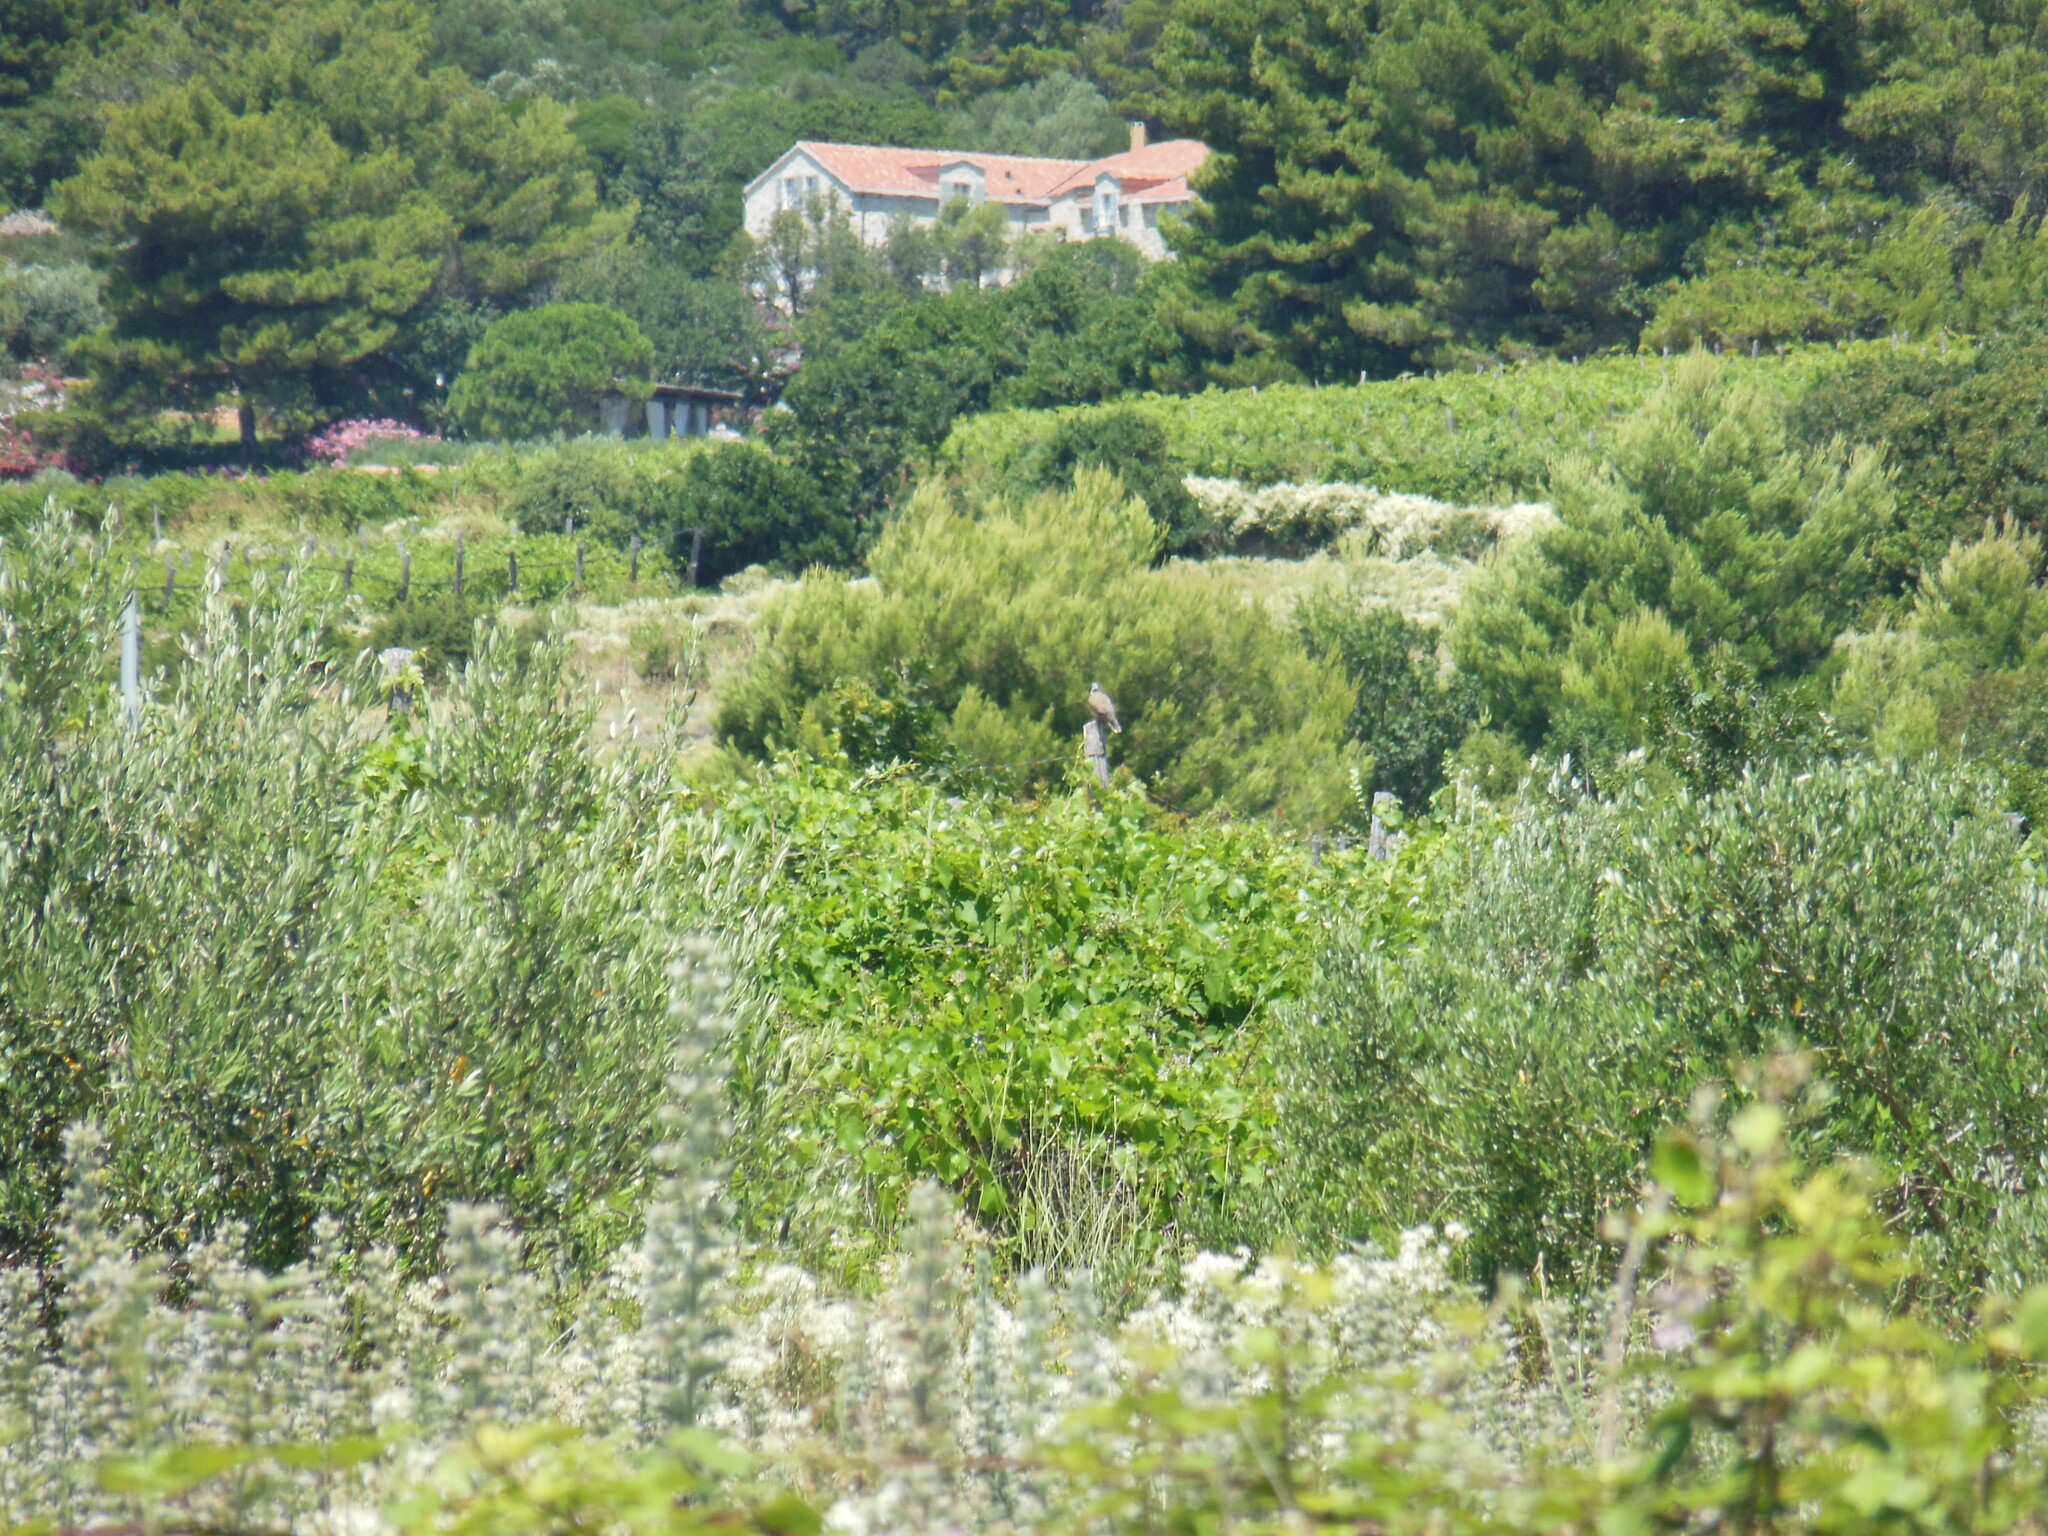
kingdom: Animalia
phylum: Chordata
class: Aves
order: Columbiformes
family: Columbidae
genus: Streptopelia
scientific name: Streptopelia turtur
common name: European turtle dove
